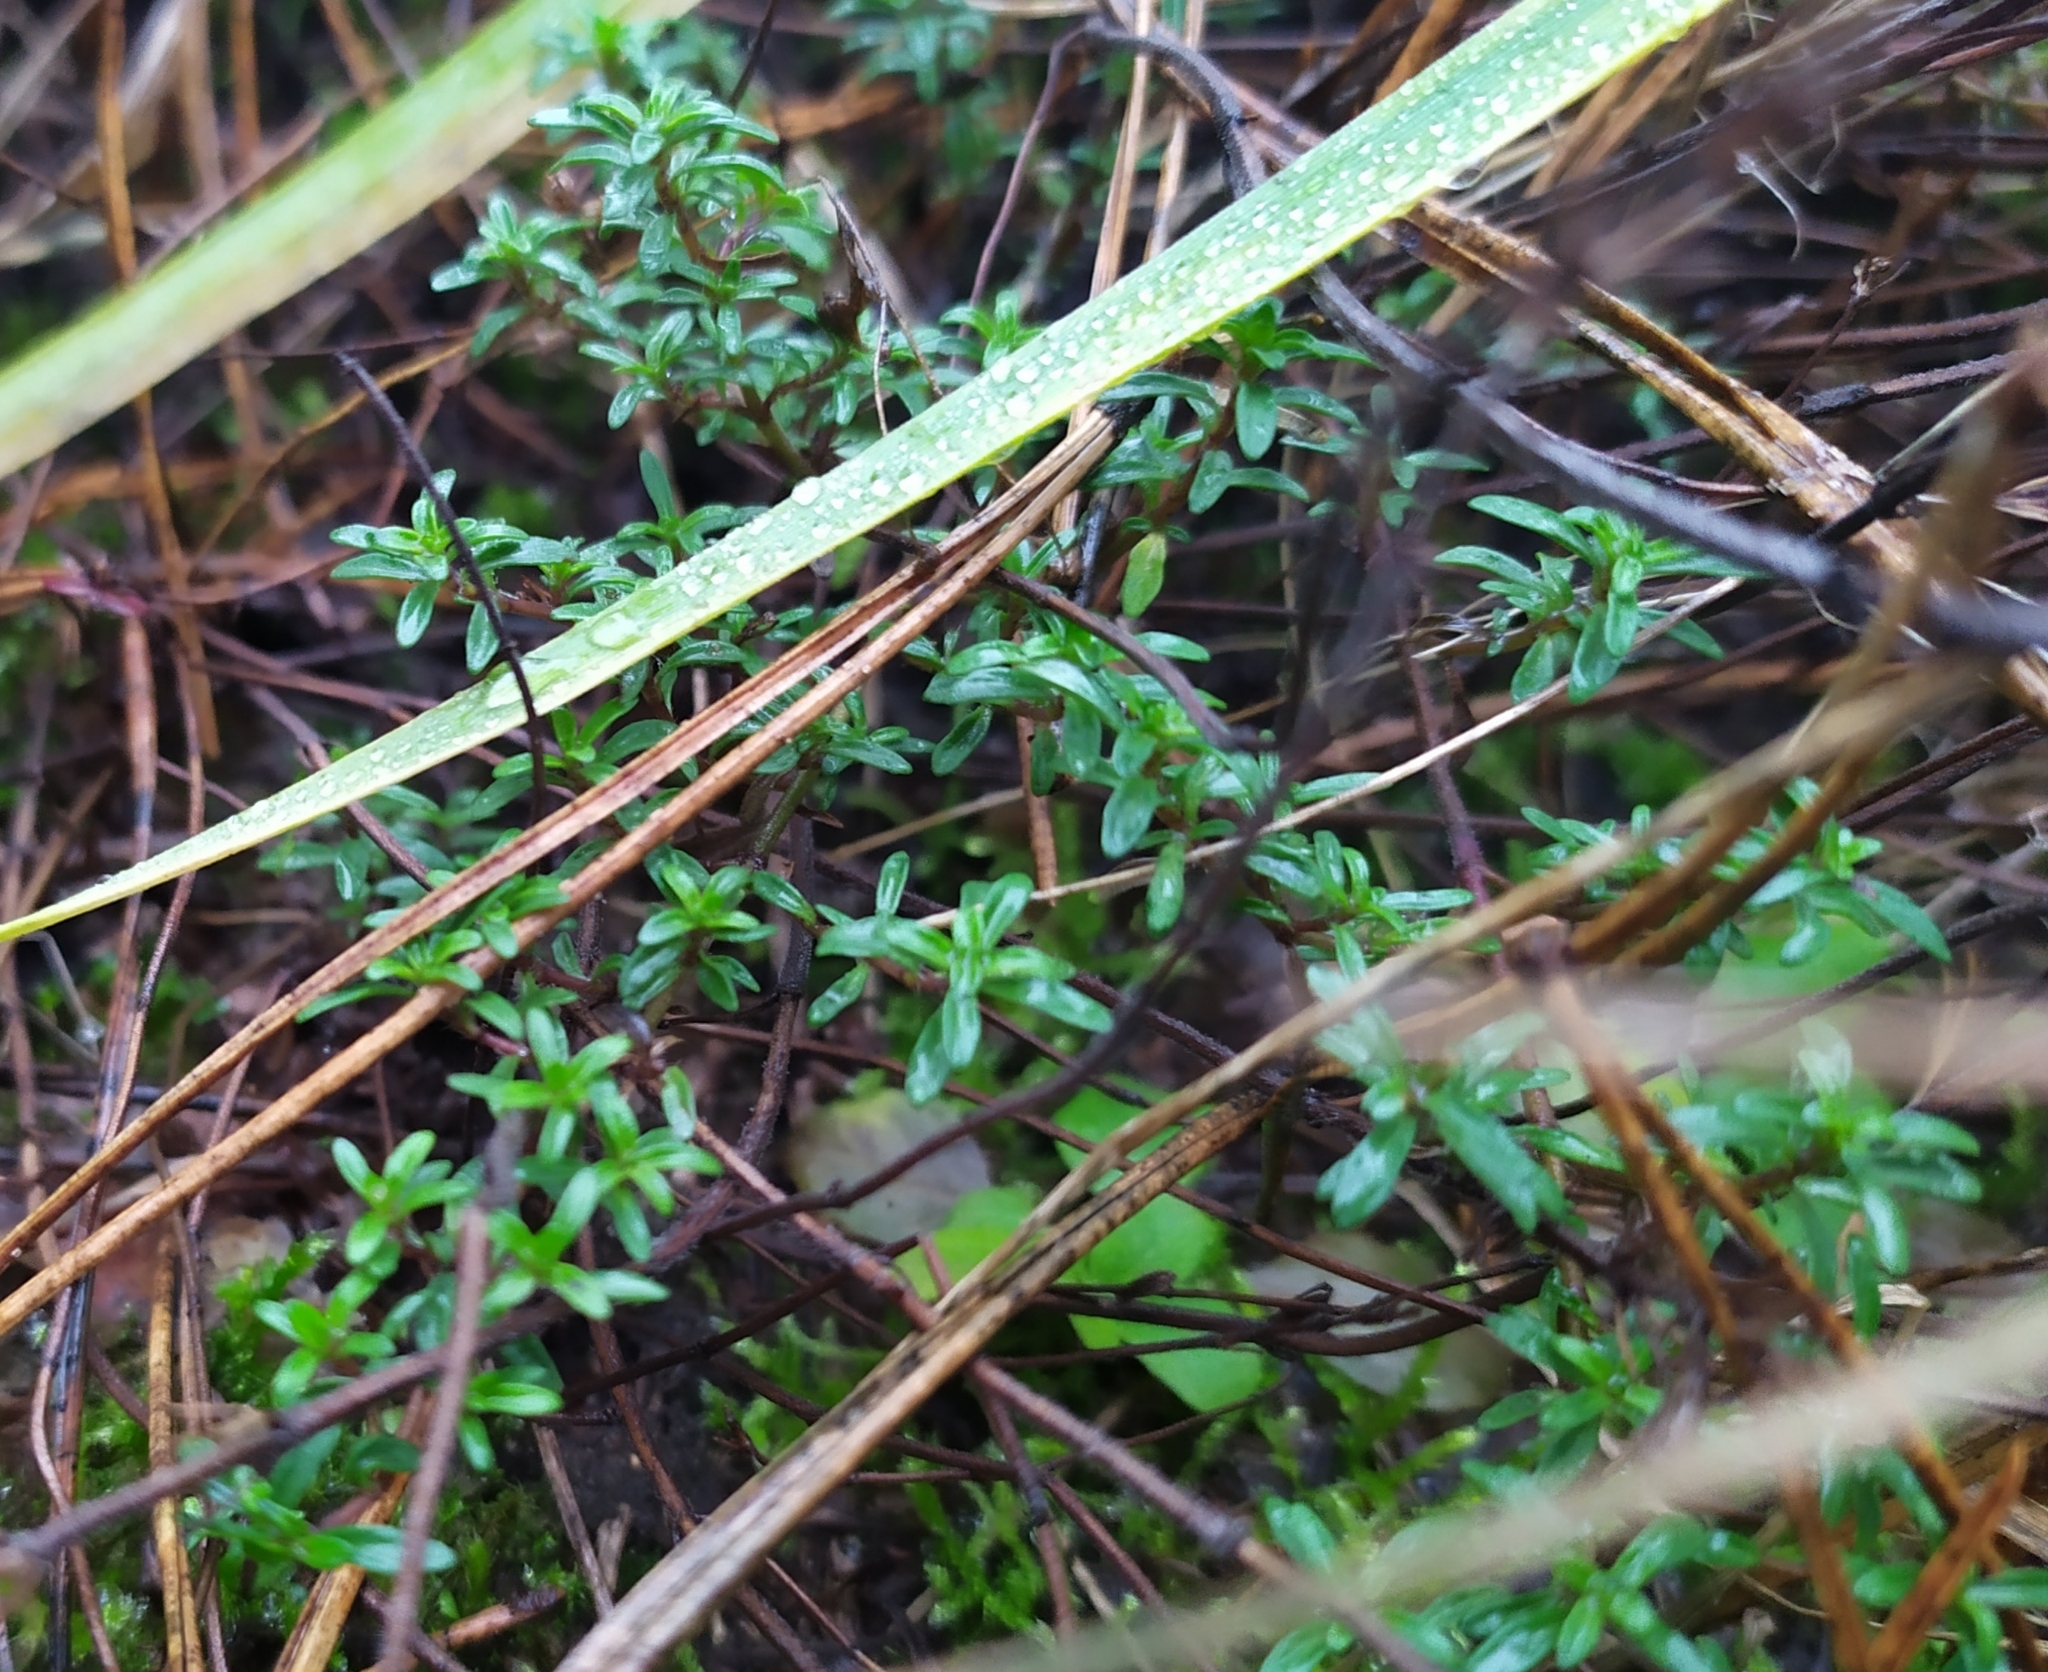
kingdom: Plantae
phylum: Tracheophyta
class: Magnoliopsida
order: Lamiales
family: Lamiaceae
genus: Thymus
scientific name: Thymus serpyllum
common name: Breckland thyme
